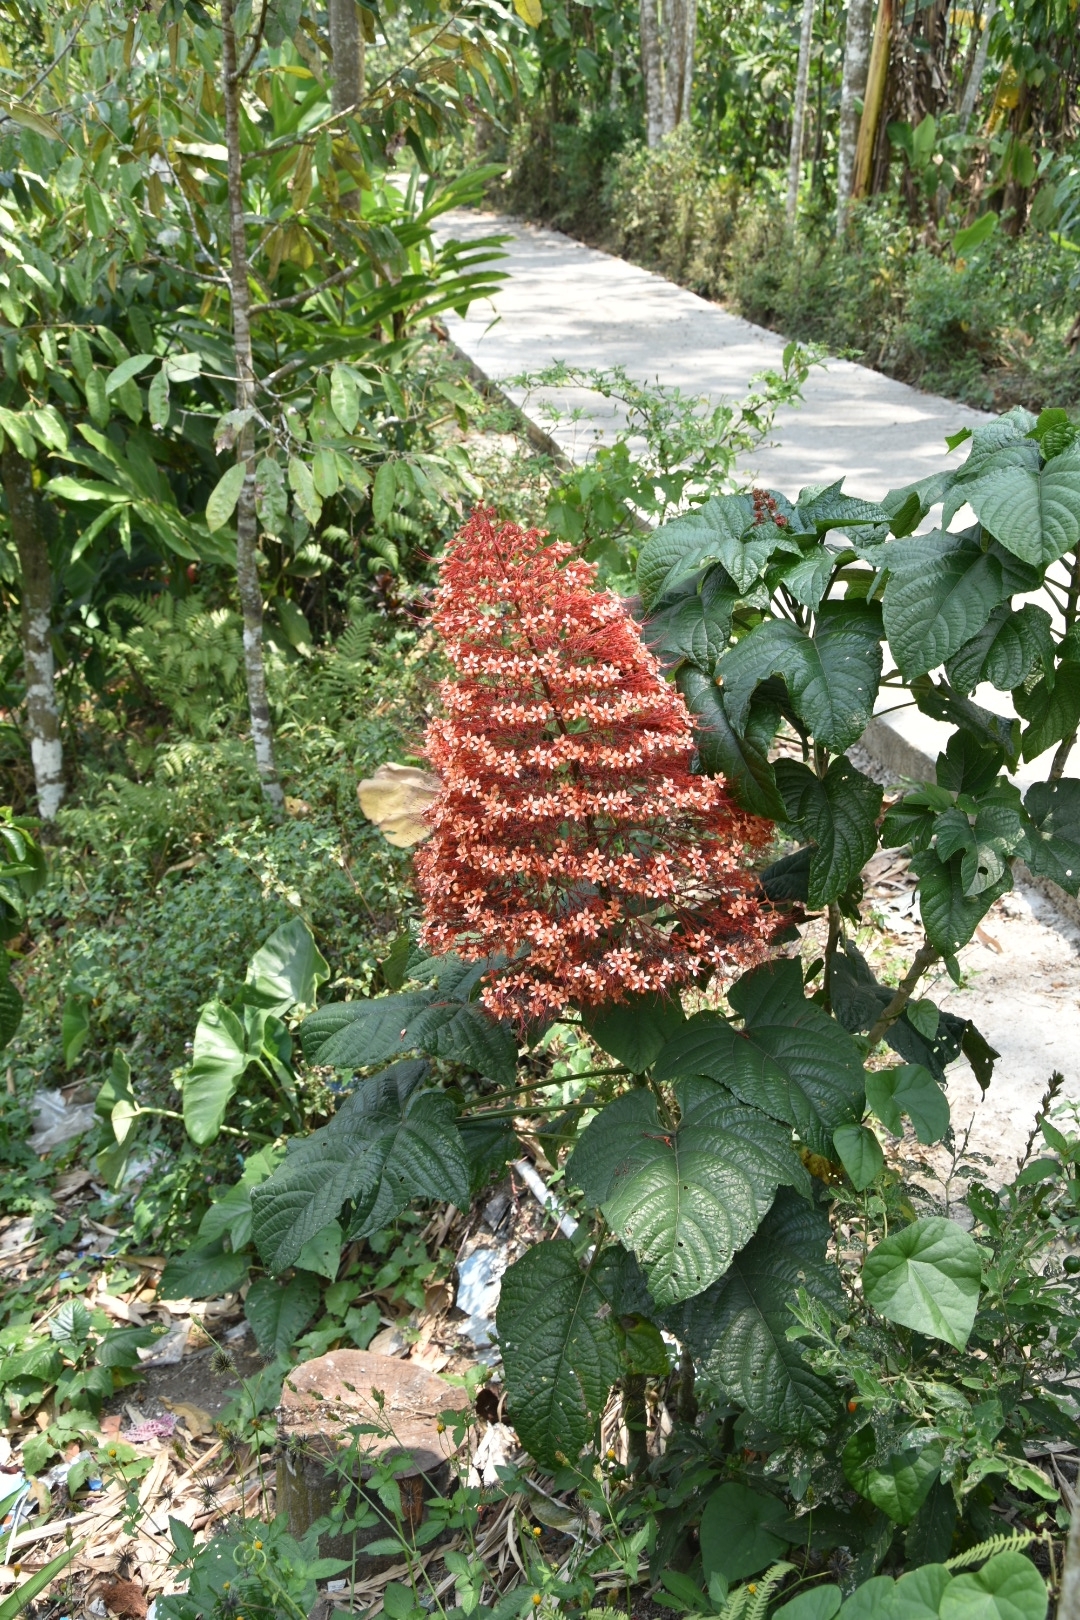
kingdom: Plantae
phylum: Tracheophyta
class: Magnoliopsida
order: Lamiales
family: Lamiaceae
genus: Clerodendrum
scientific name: Clerodendrum paniculatum
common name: Pagoda-flower
